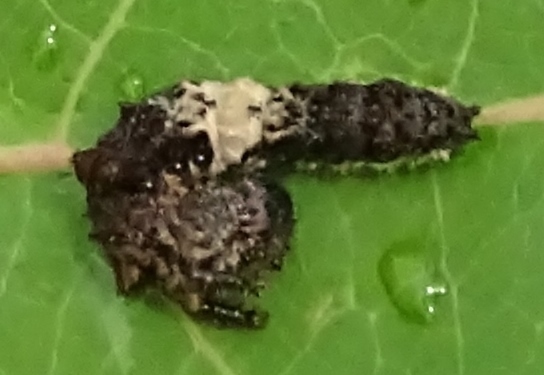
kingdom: Animalia
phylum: Arthropoda
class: Insecta
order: Lepidoptera
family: Nymphalidae
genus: Limenitis
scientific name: Limenitis archippus
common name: Viceroy
